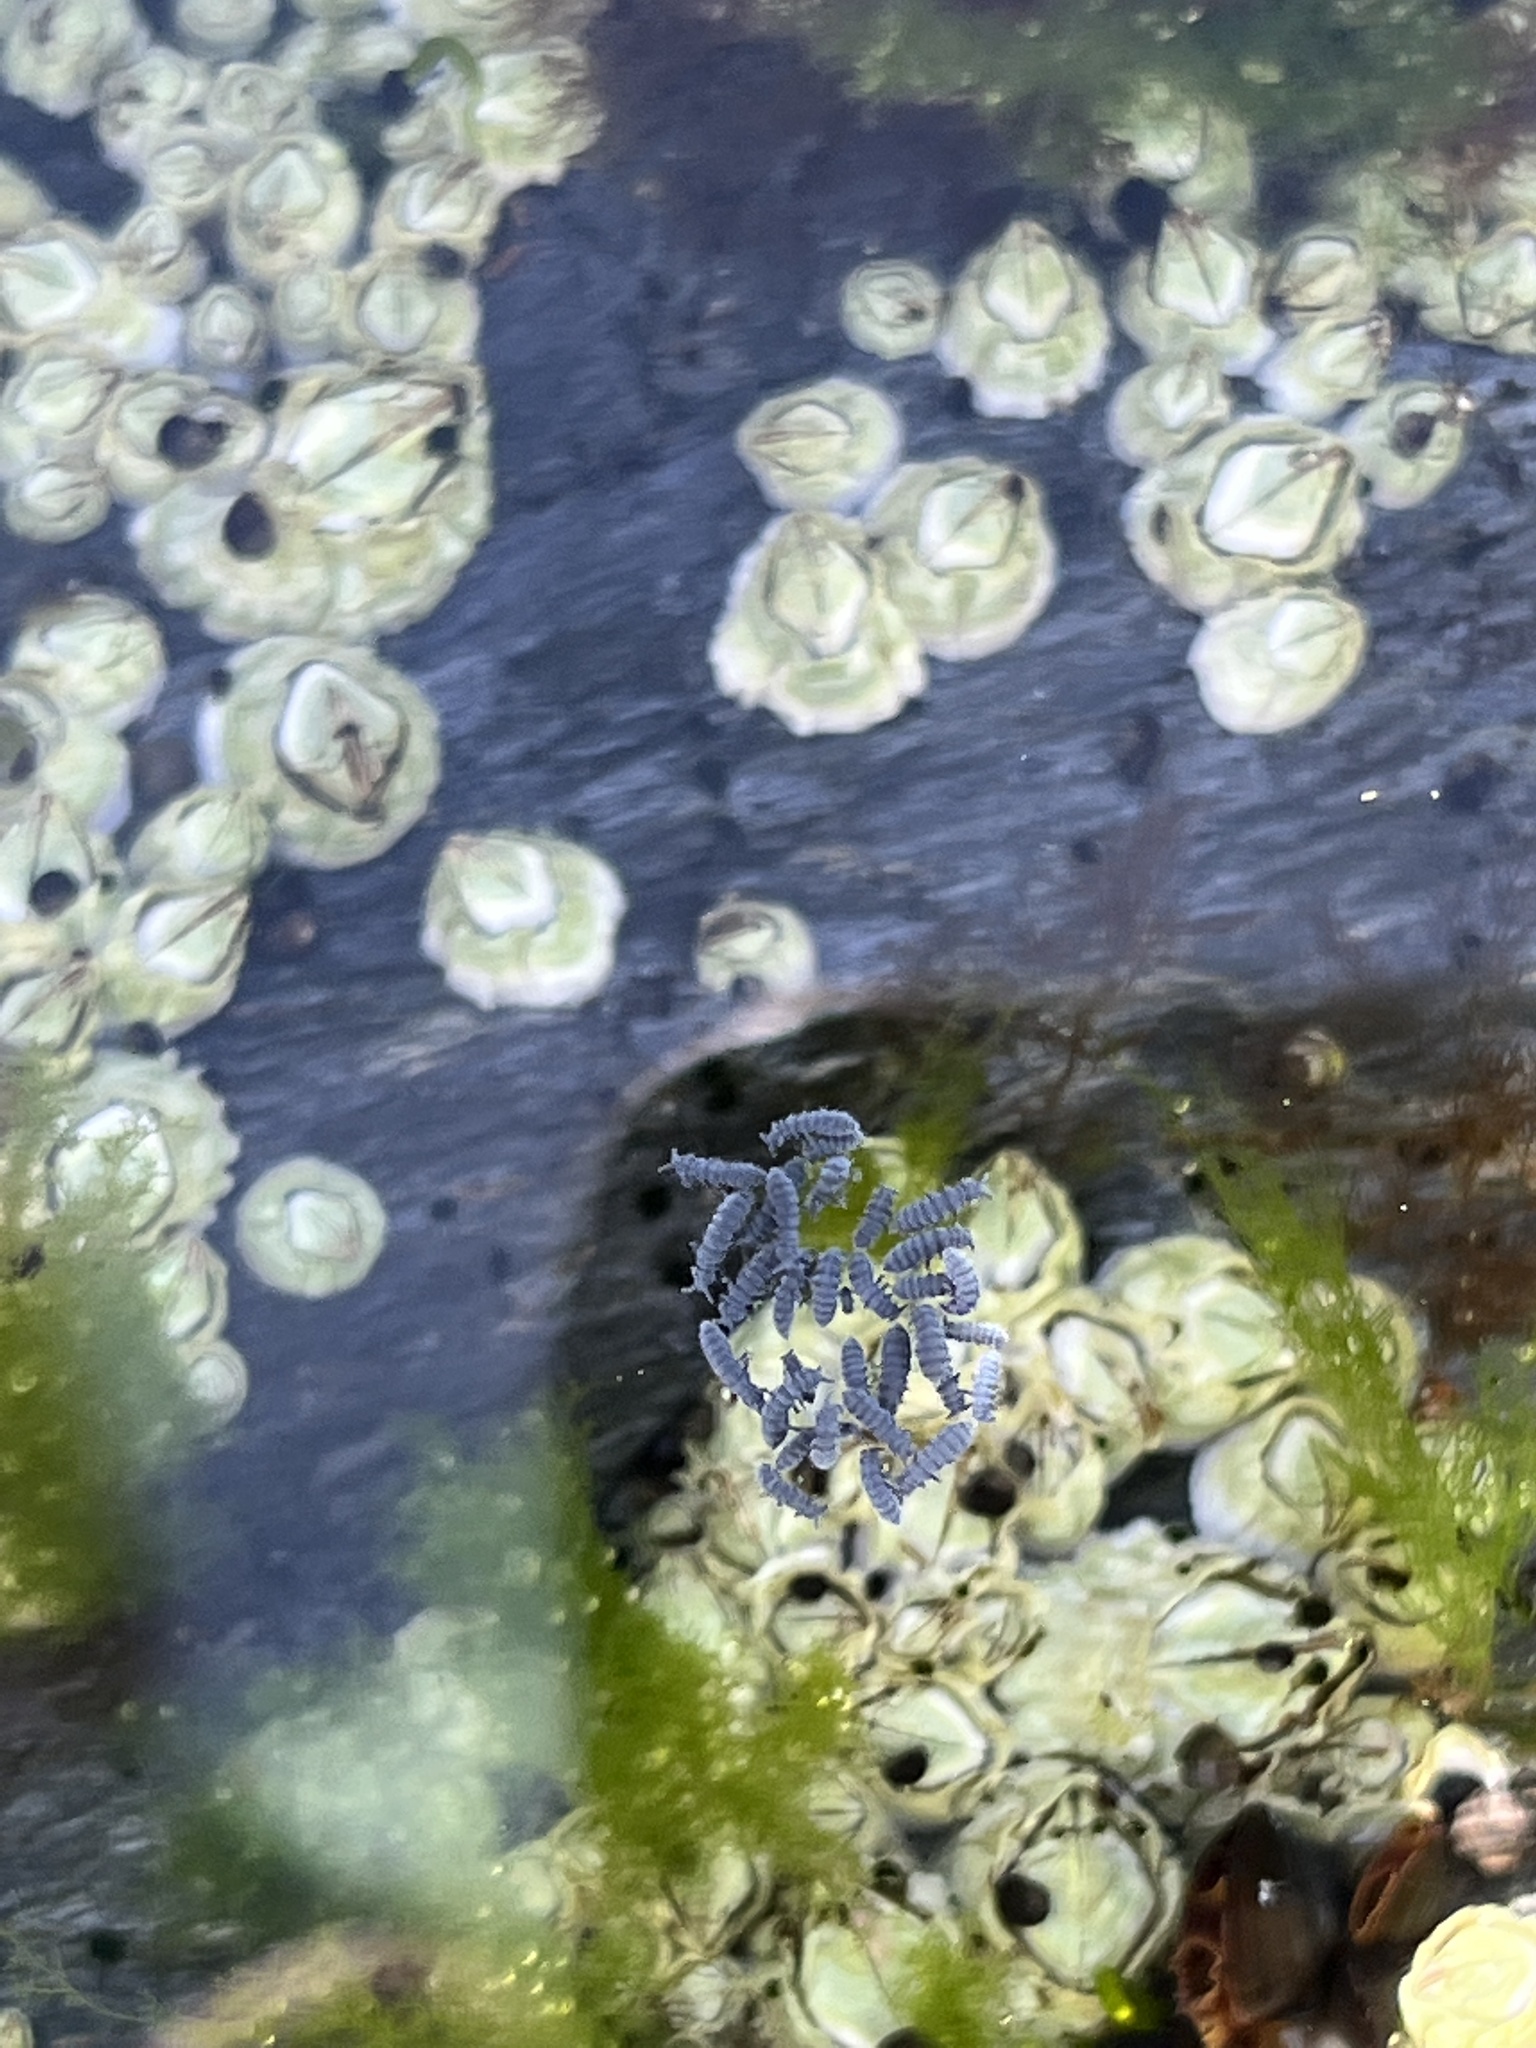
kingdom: Animalia
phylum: Arthropoda
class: Collembola
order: Poduromorpha
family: Neanuridae
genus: Anurida
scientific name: Anurida maritima
